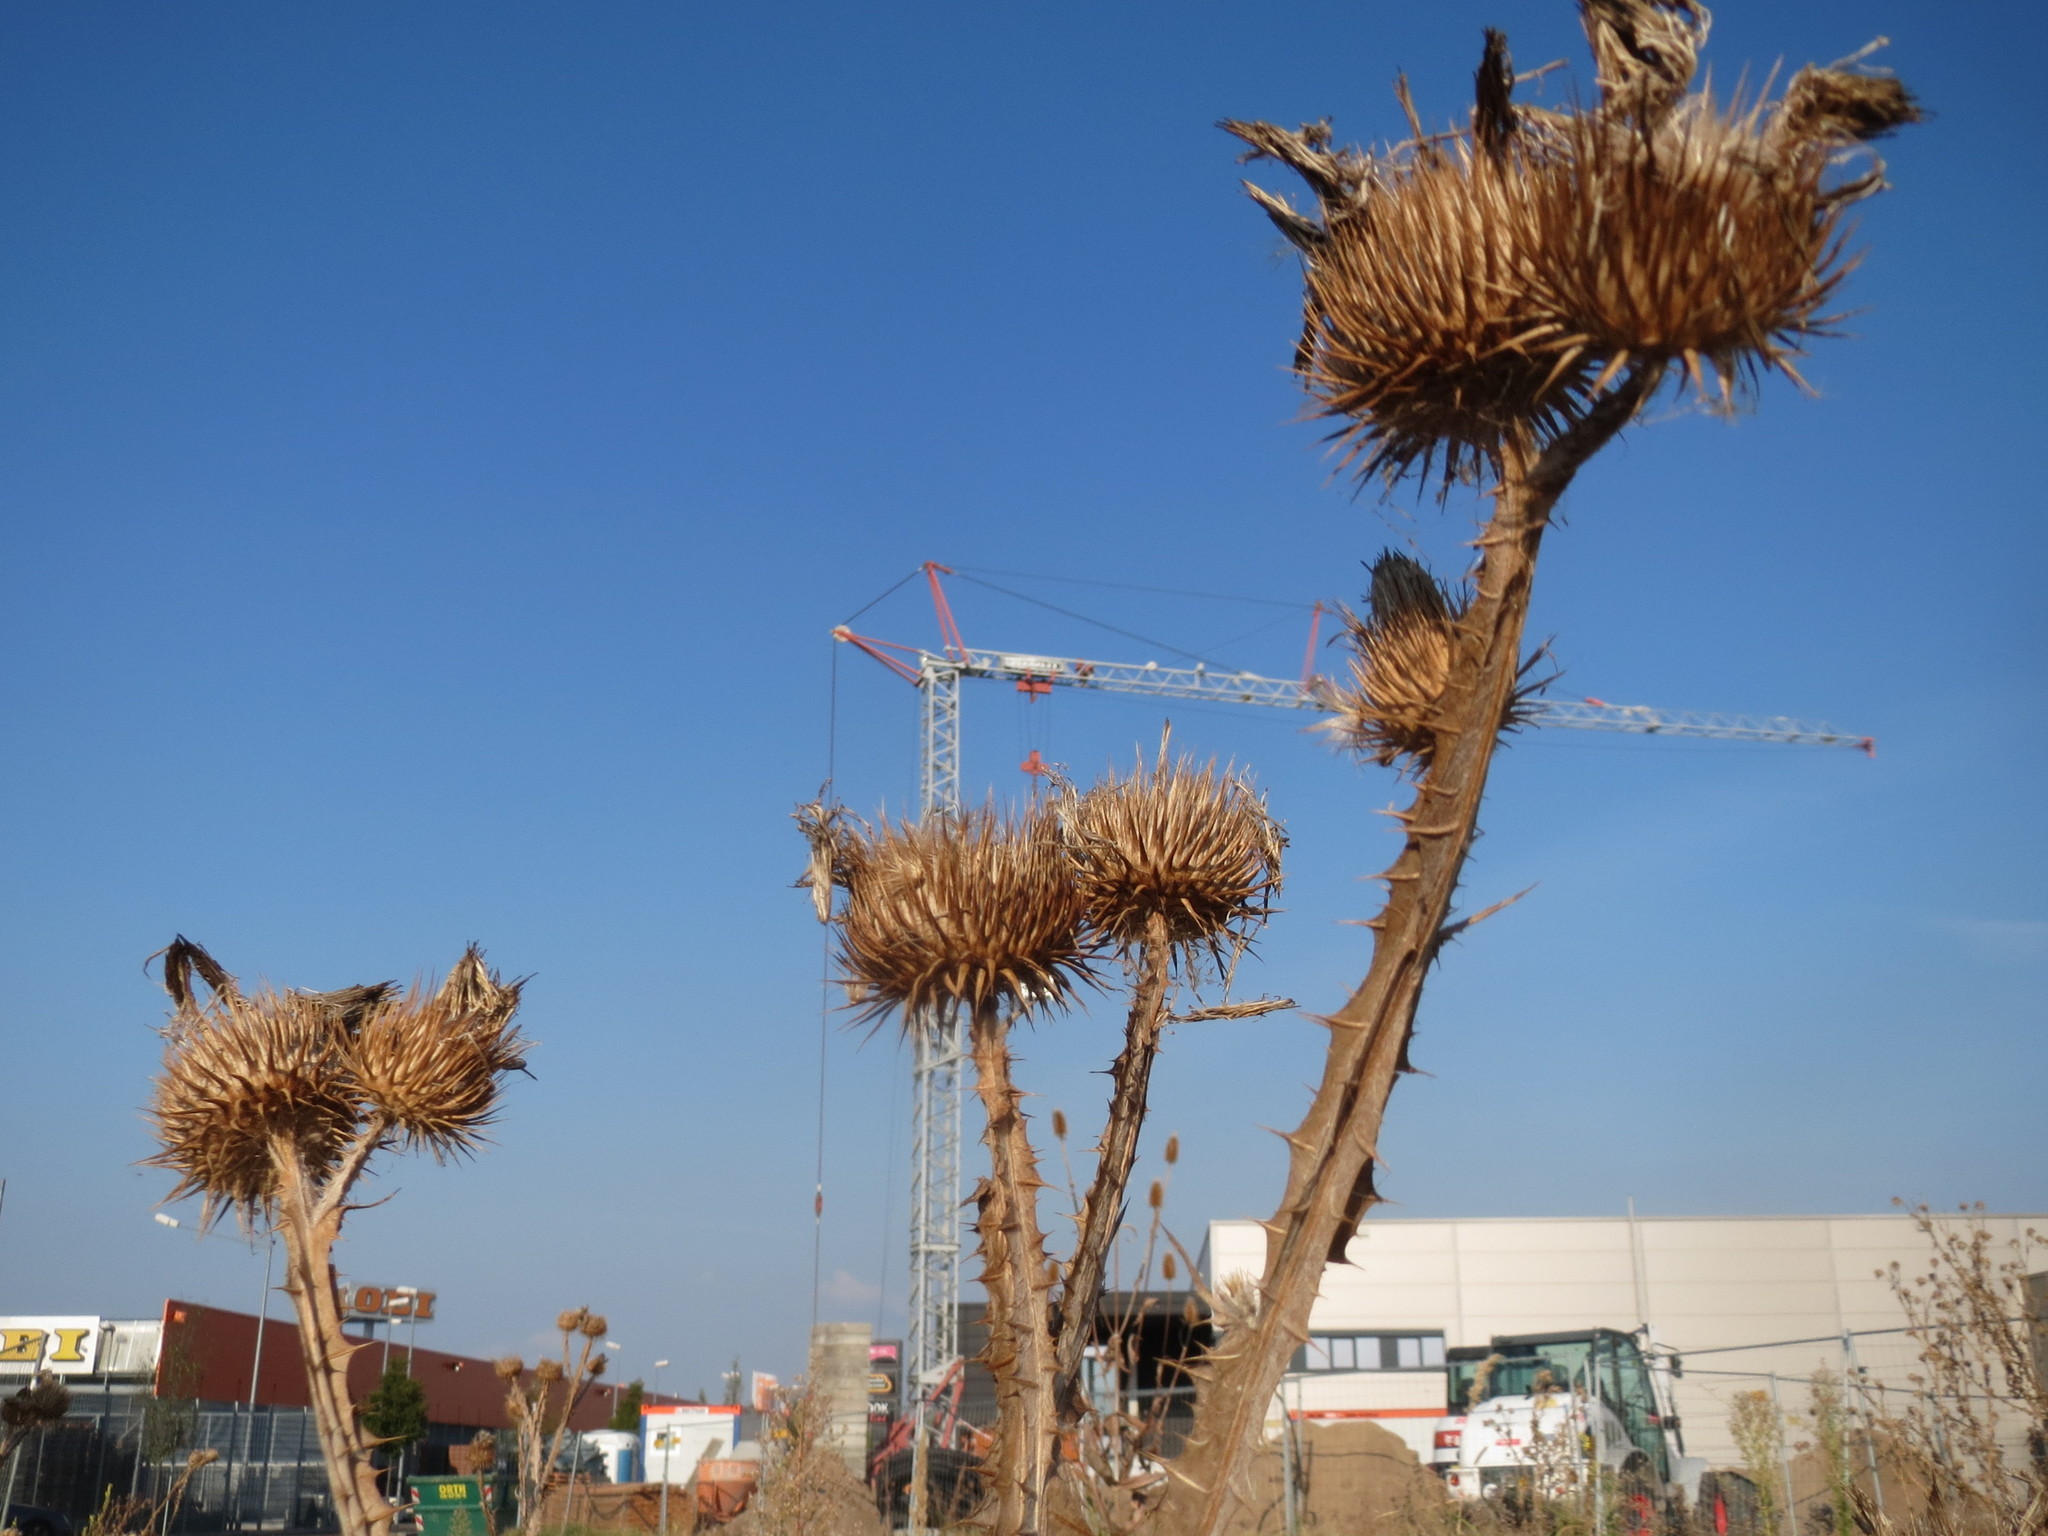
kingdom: Plantae
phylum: Tracheophyta
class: Magnoliopsida
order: Asterales
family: Asteraceae
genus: Onopordum
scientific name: Onopordum acanthium
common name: Scotch thistle
